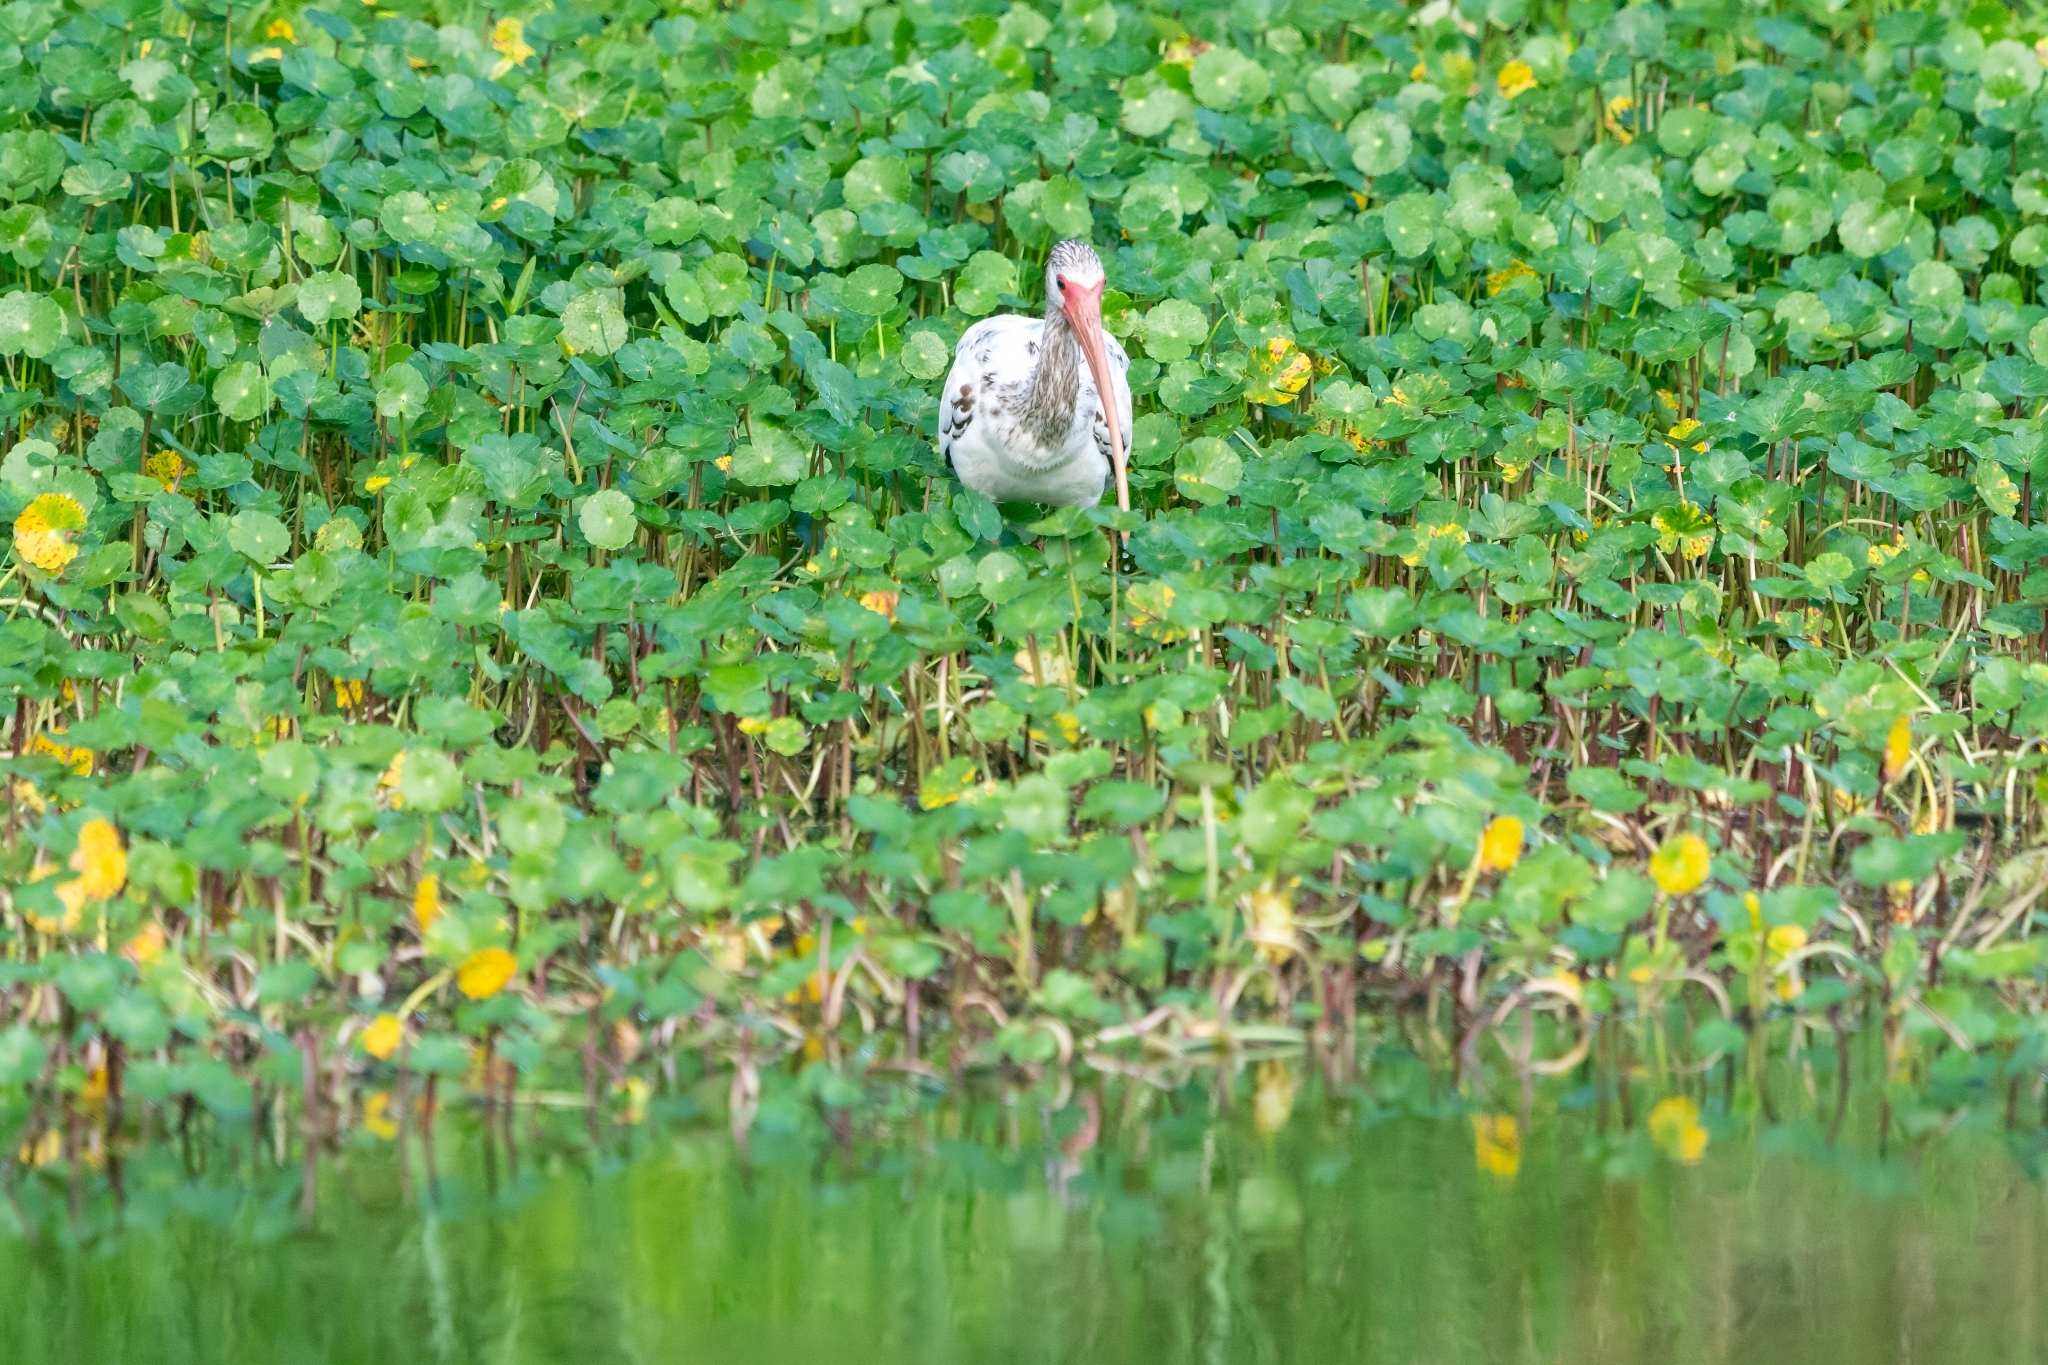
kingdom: Animalia
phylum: Chordata
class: Aves
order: Pelecaniformes
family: Threskiornithidae
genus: Eudocimus
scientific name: Eudocimus albus
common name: White ibis
